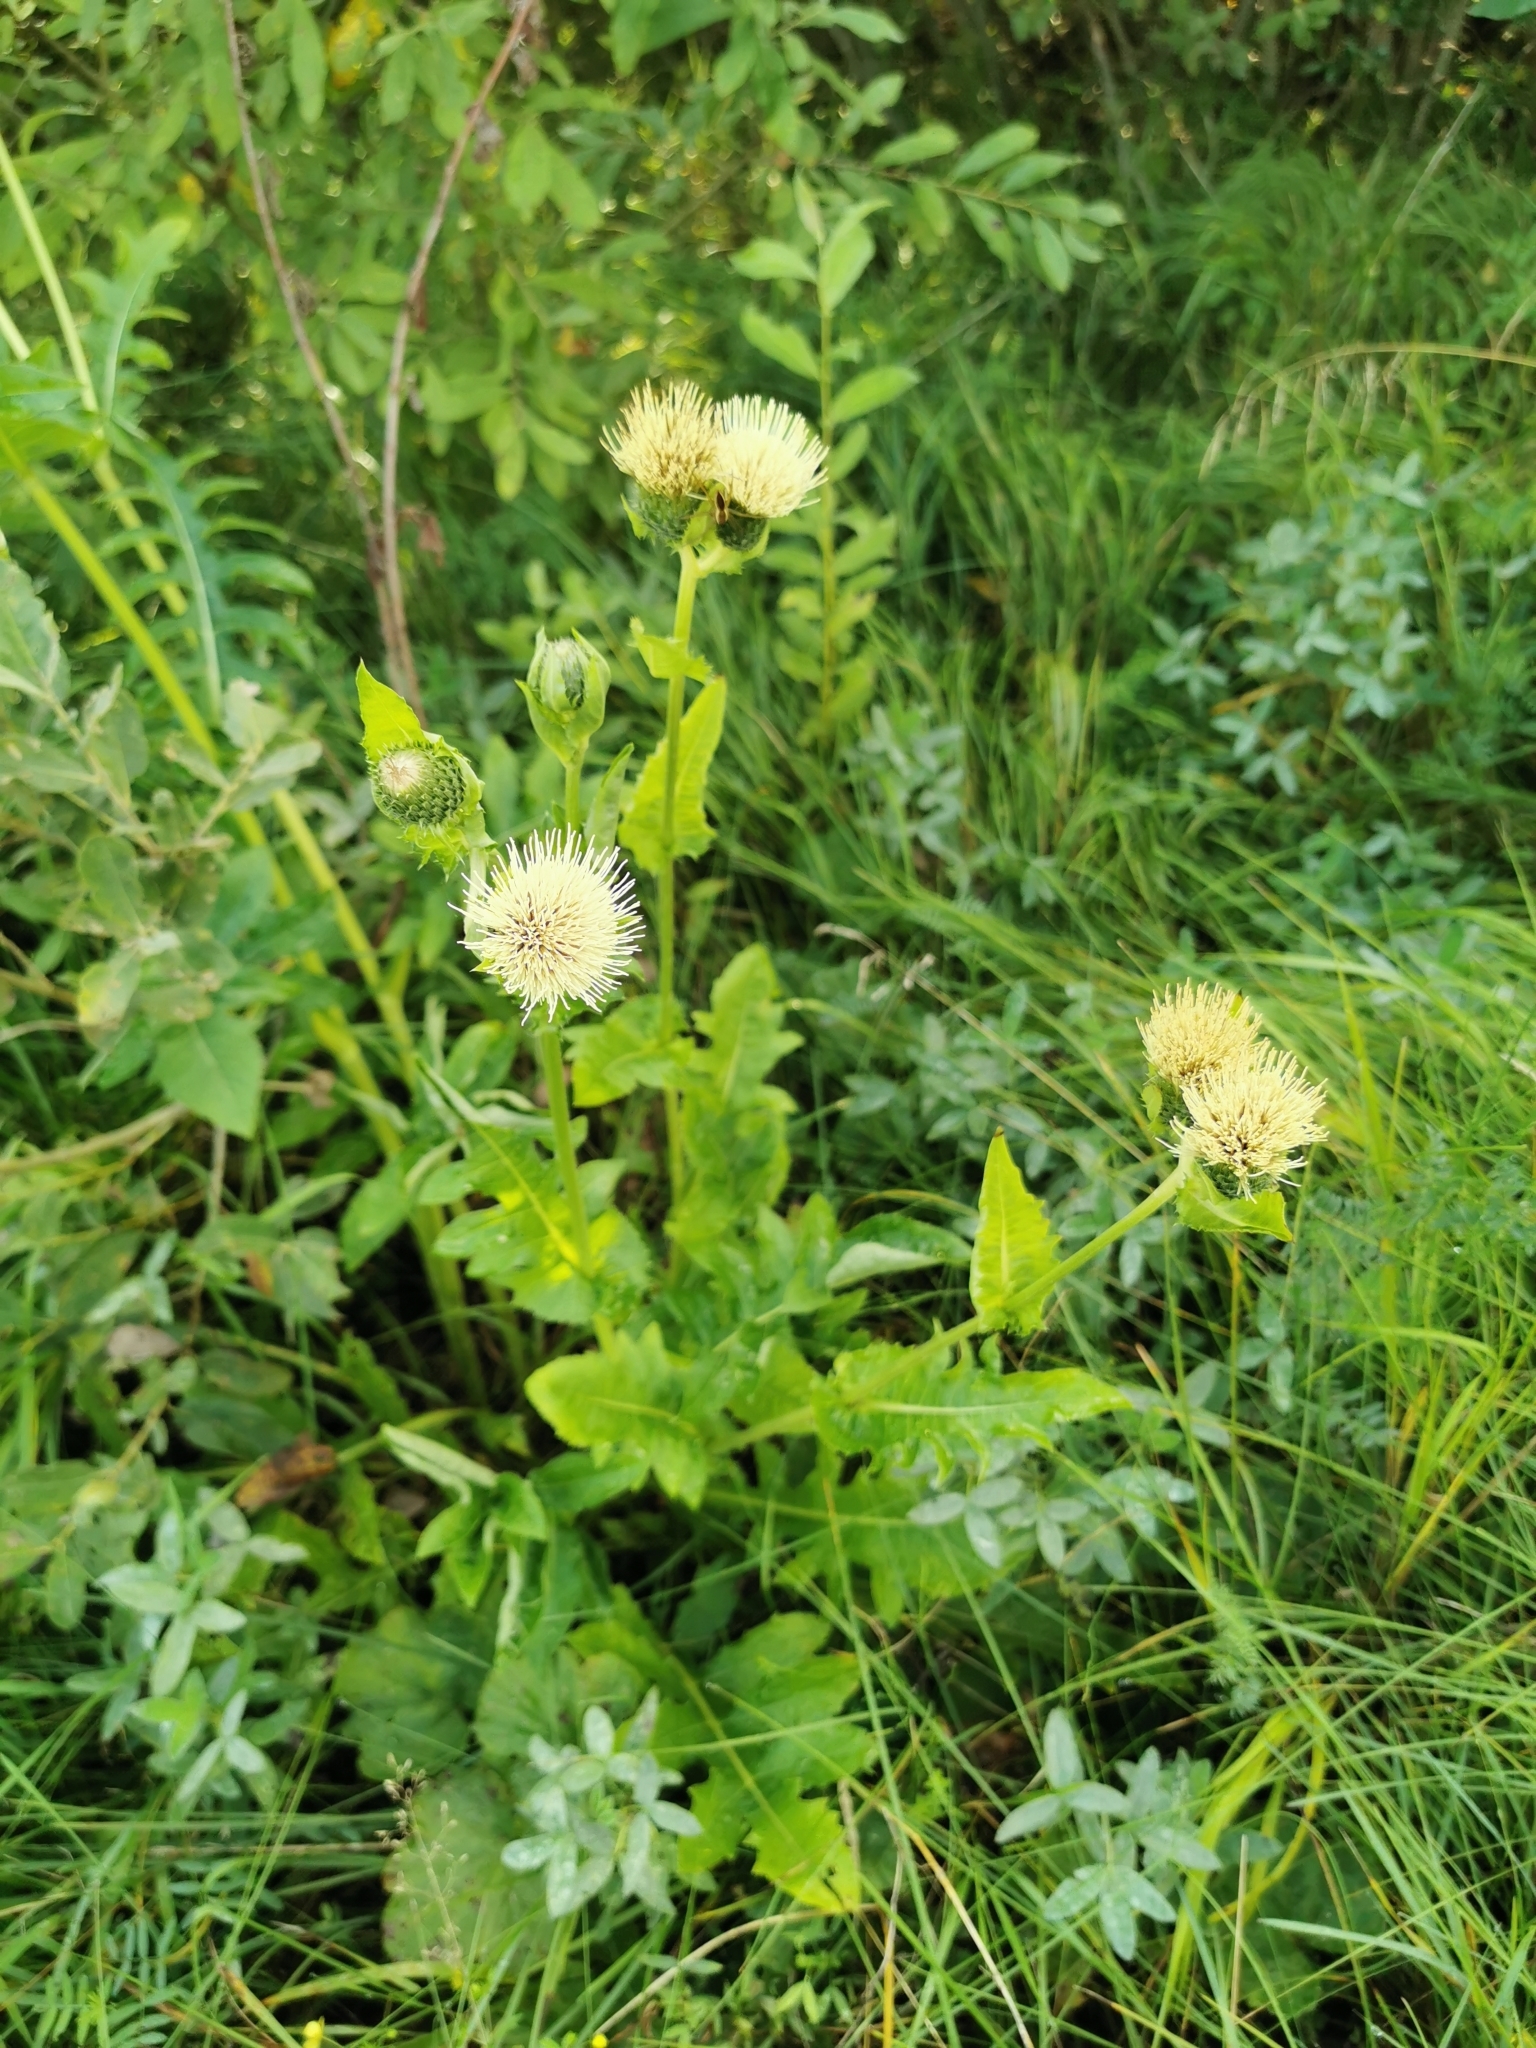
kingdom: Plantae
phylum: Tracheophyta
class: Magnoliopsida
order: Asterales
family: Asteraceae
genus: Cirsium
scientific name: Cirsium oleraceum
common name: Cabbage thistle
